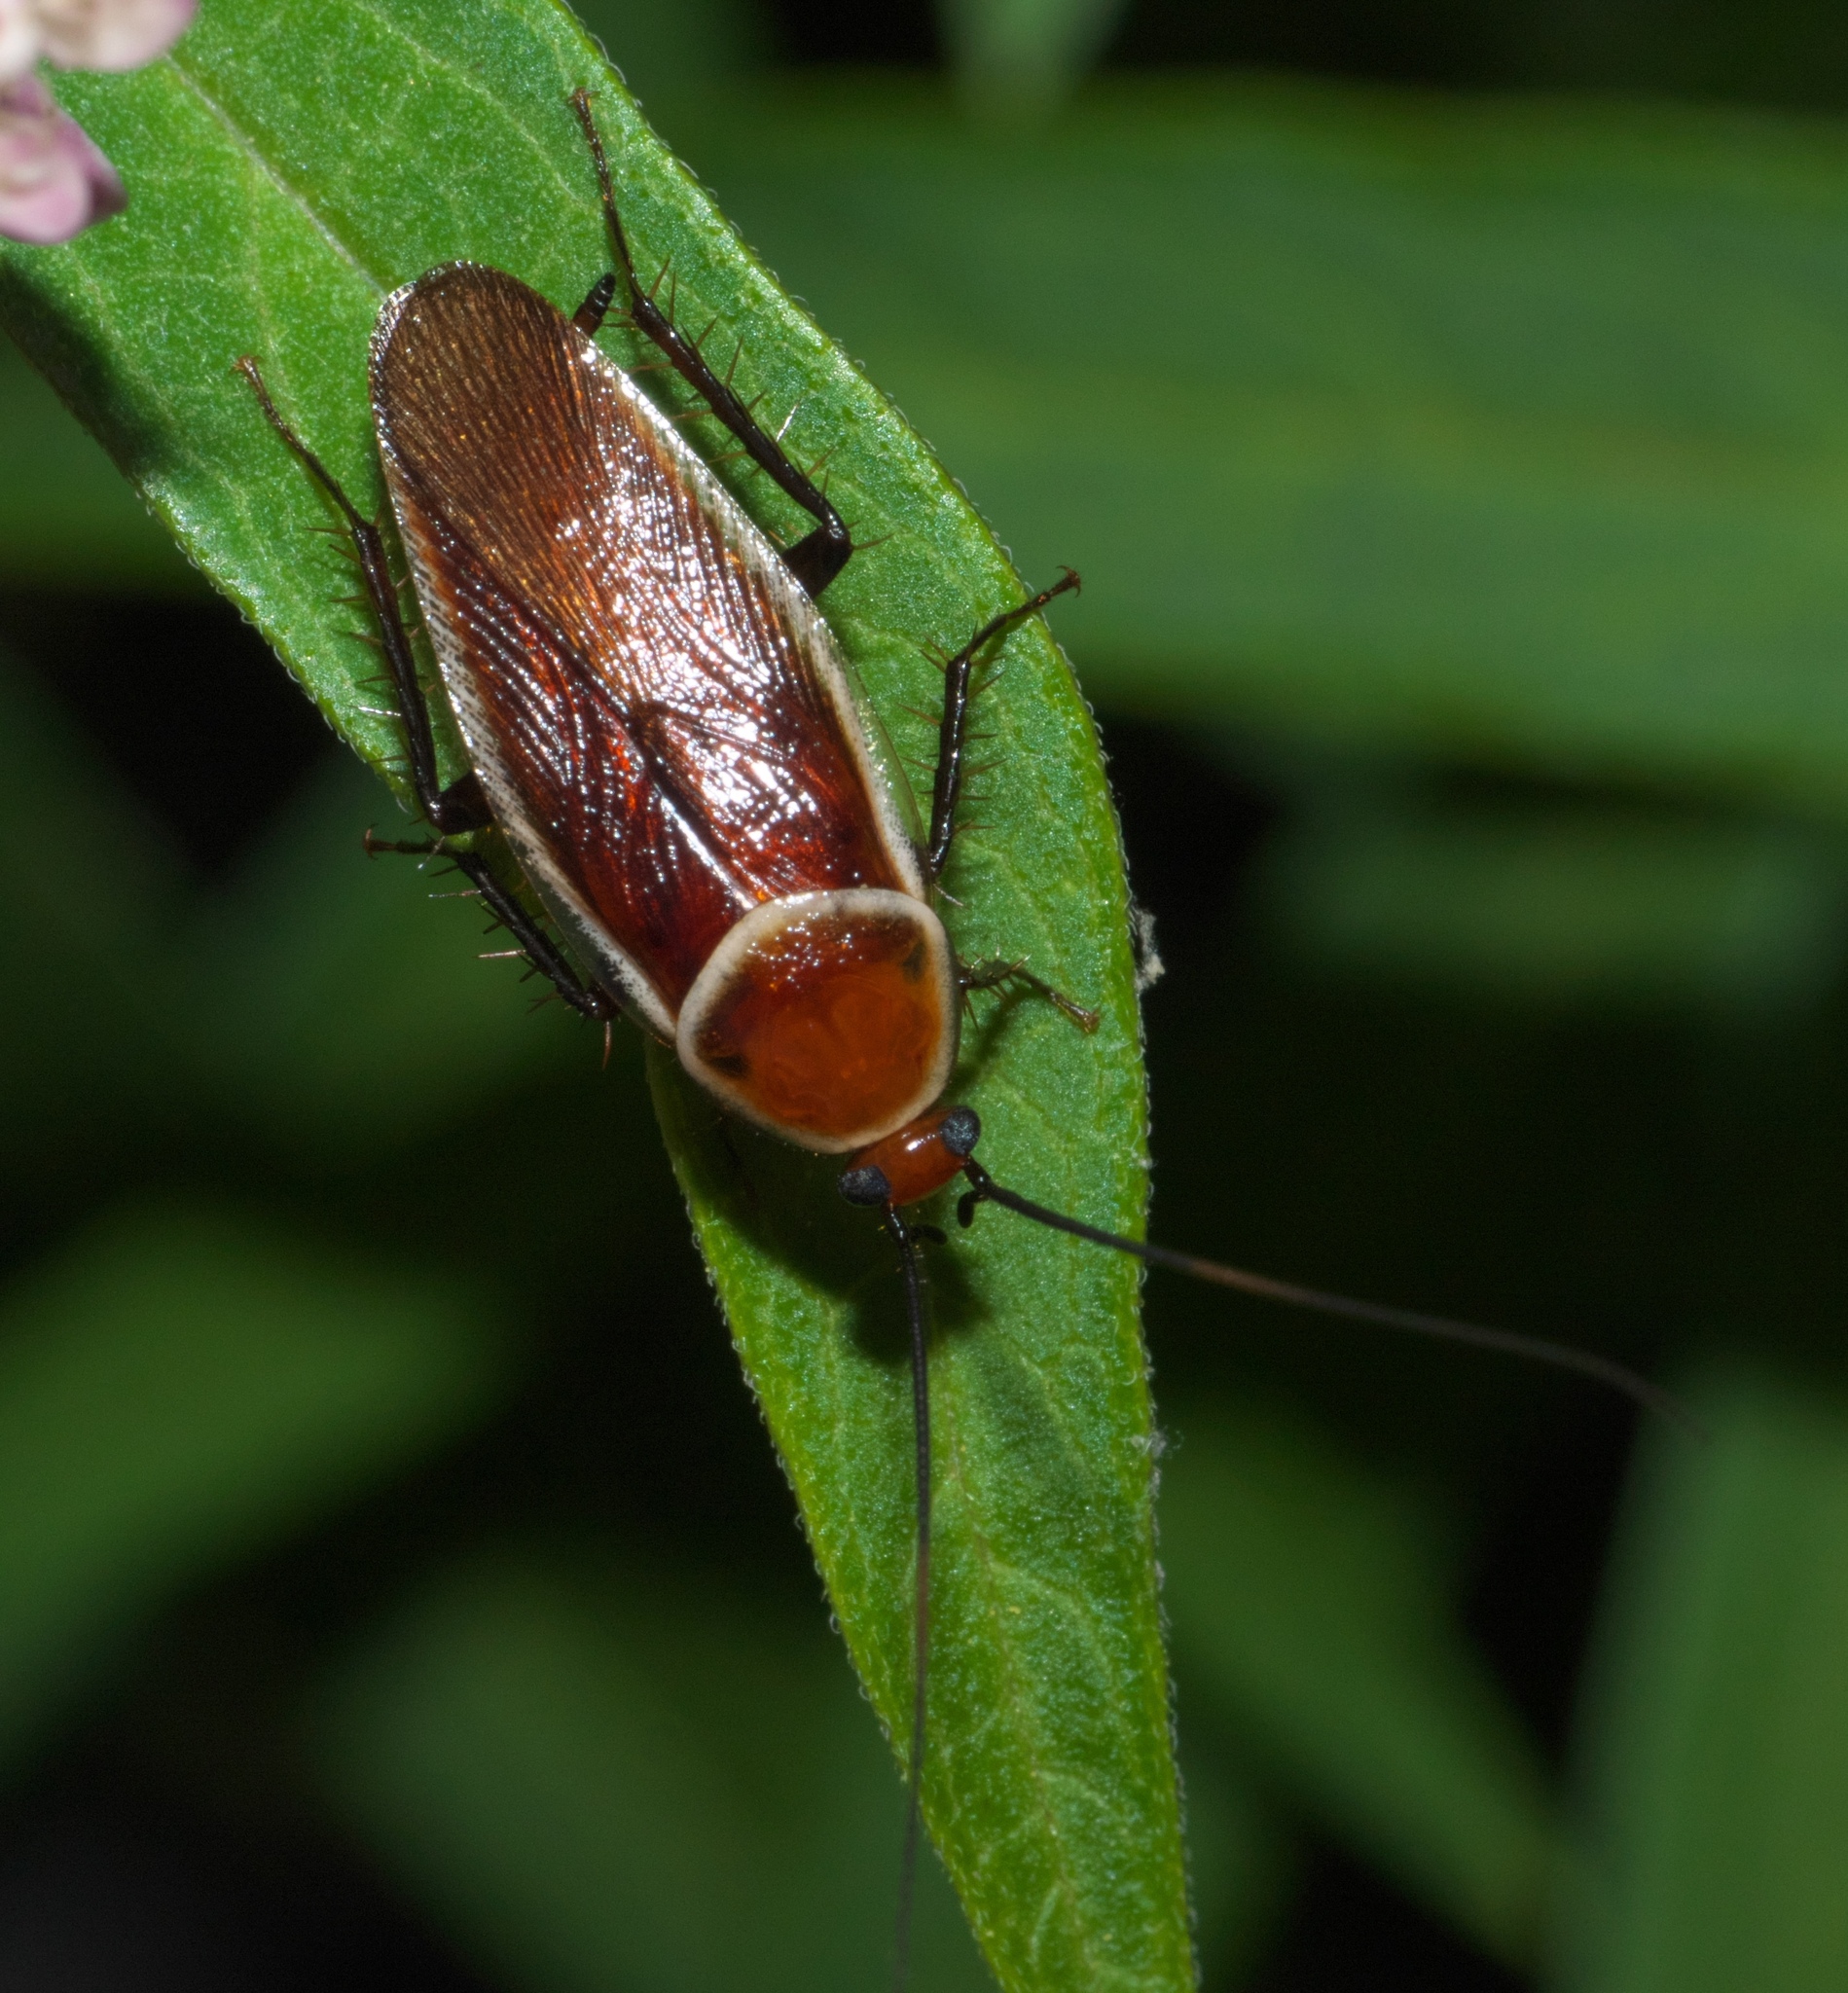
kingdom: Animalia
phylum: Arthropoda
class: Insecta
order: Blattodea
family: Ectobiidae
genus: Pseudomops
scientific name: Pseudomops septentrionalis
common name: Pale-bordered field cockroach
